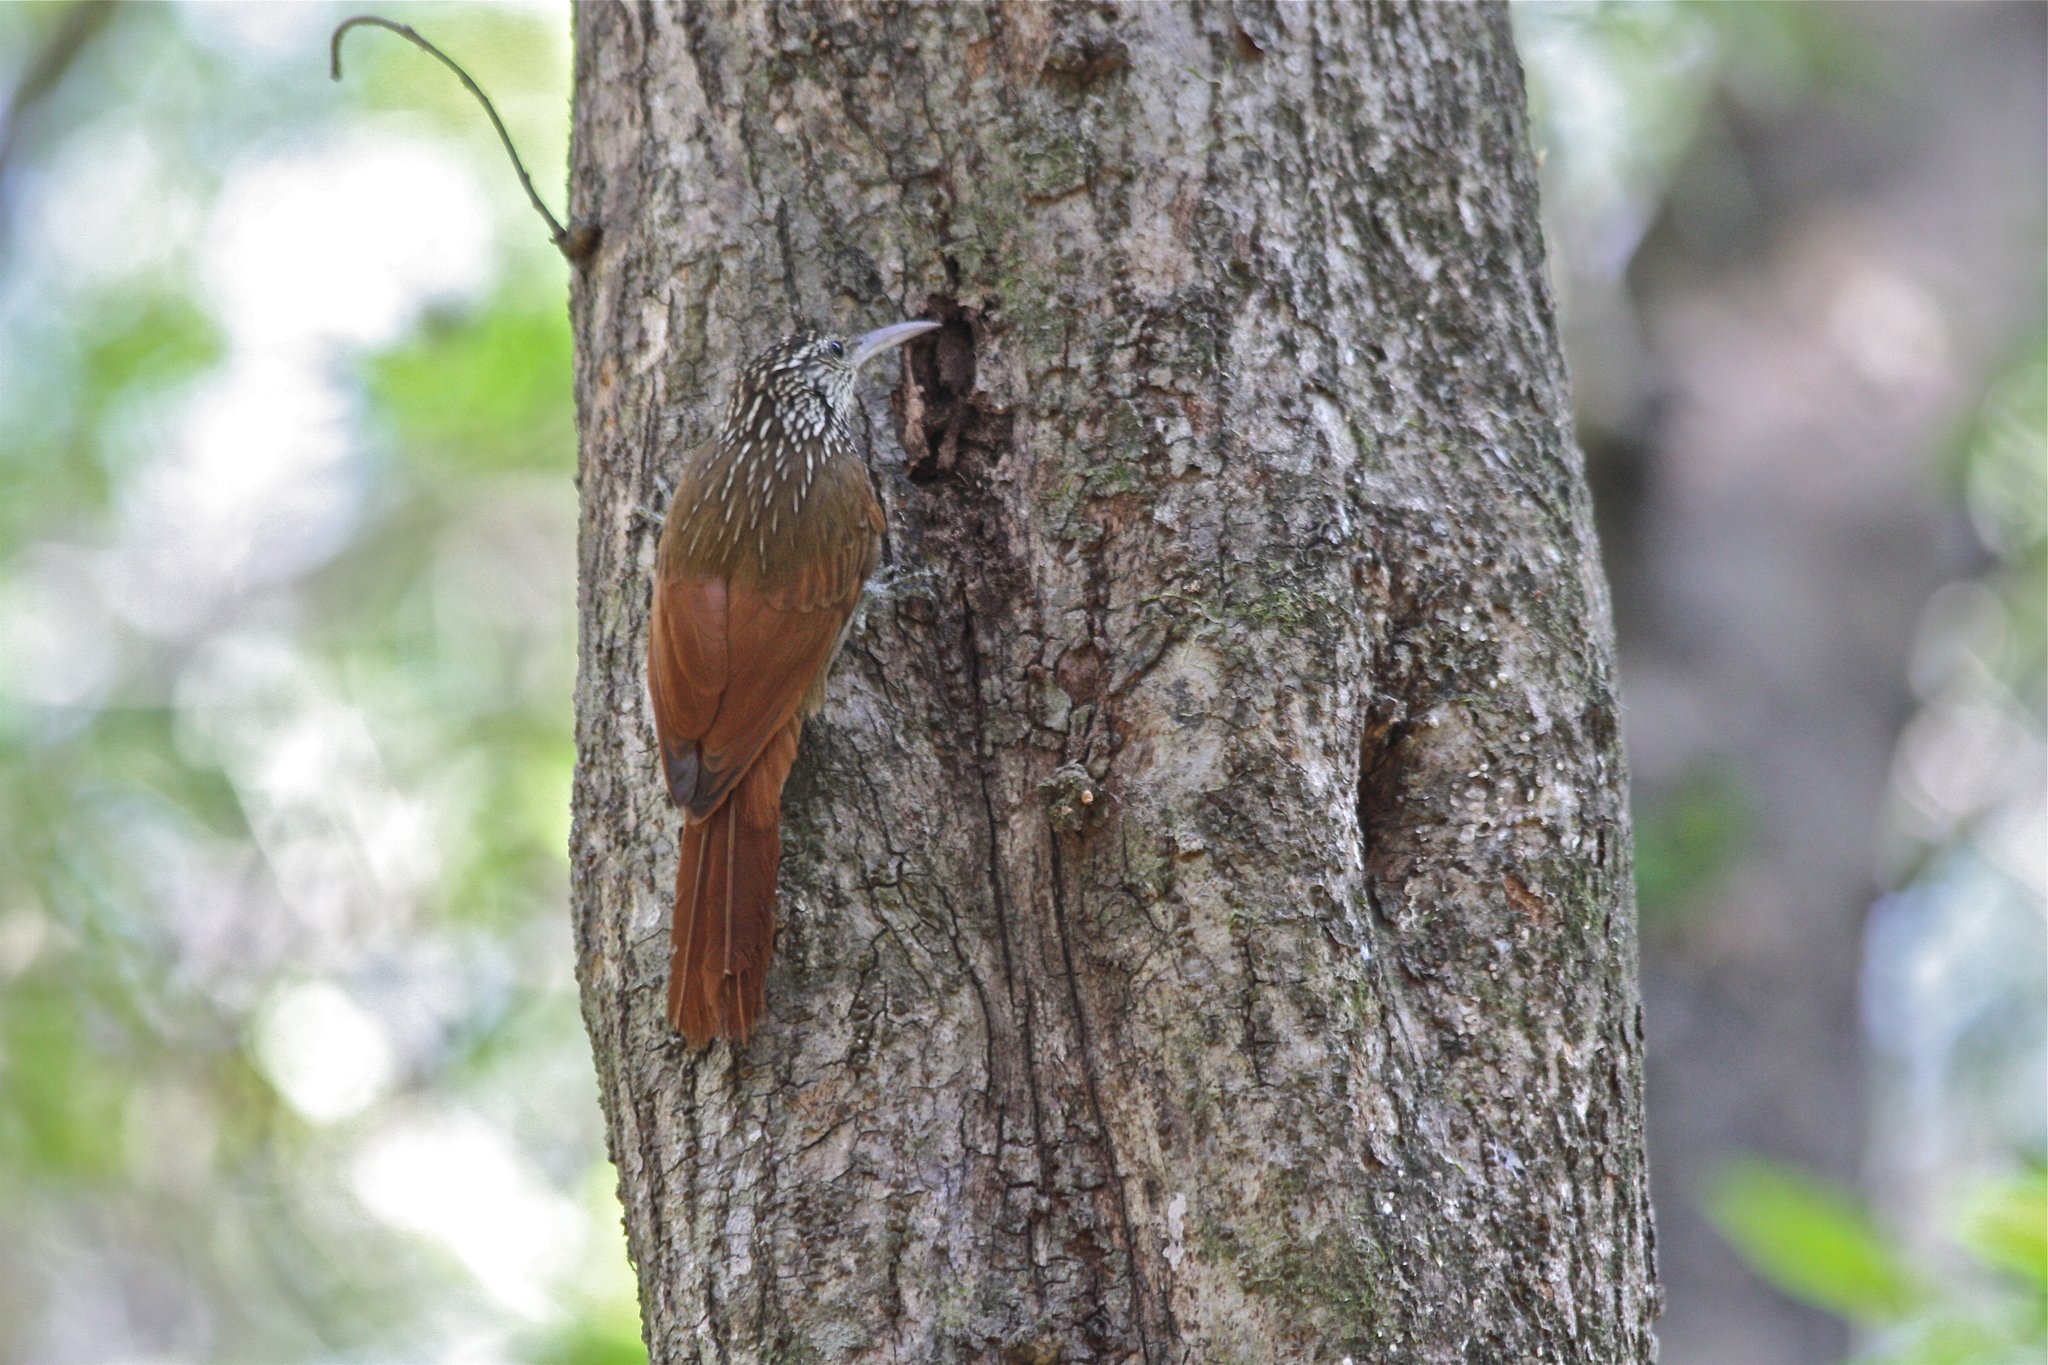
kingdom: Animalia
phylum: Chordata
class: Aves
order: Passeriformes
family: Furnariidae
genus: Lepidocolaptes
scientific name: Lepidocolaptes souleyetii
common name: Streak-headed woodcreeper
